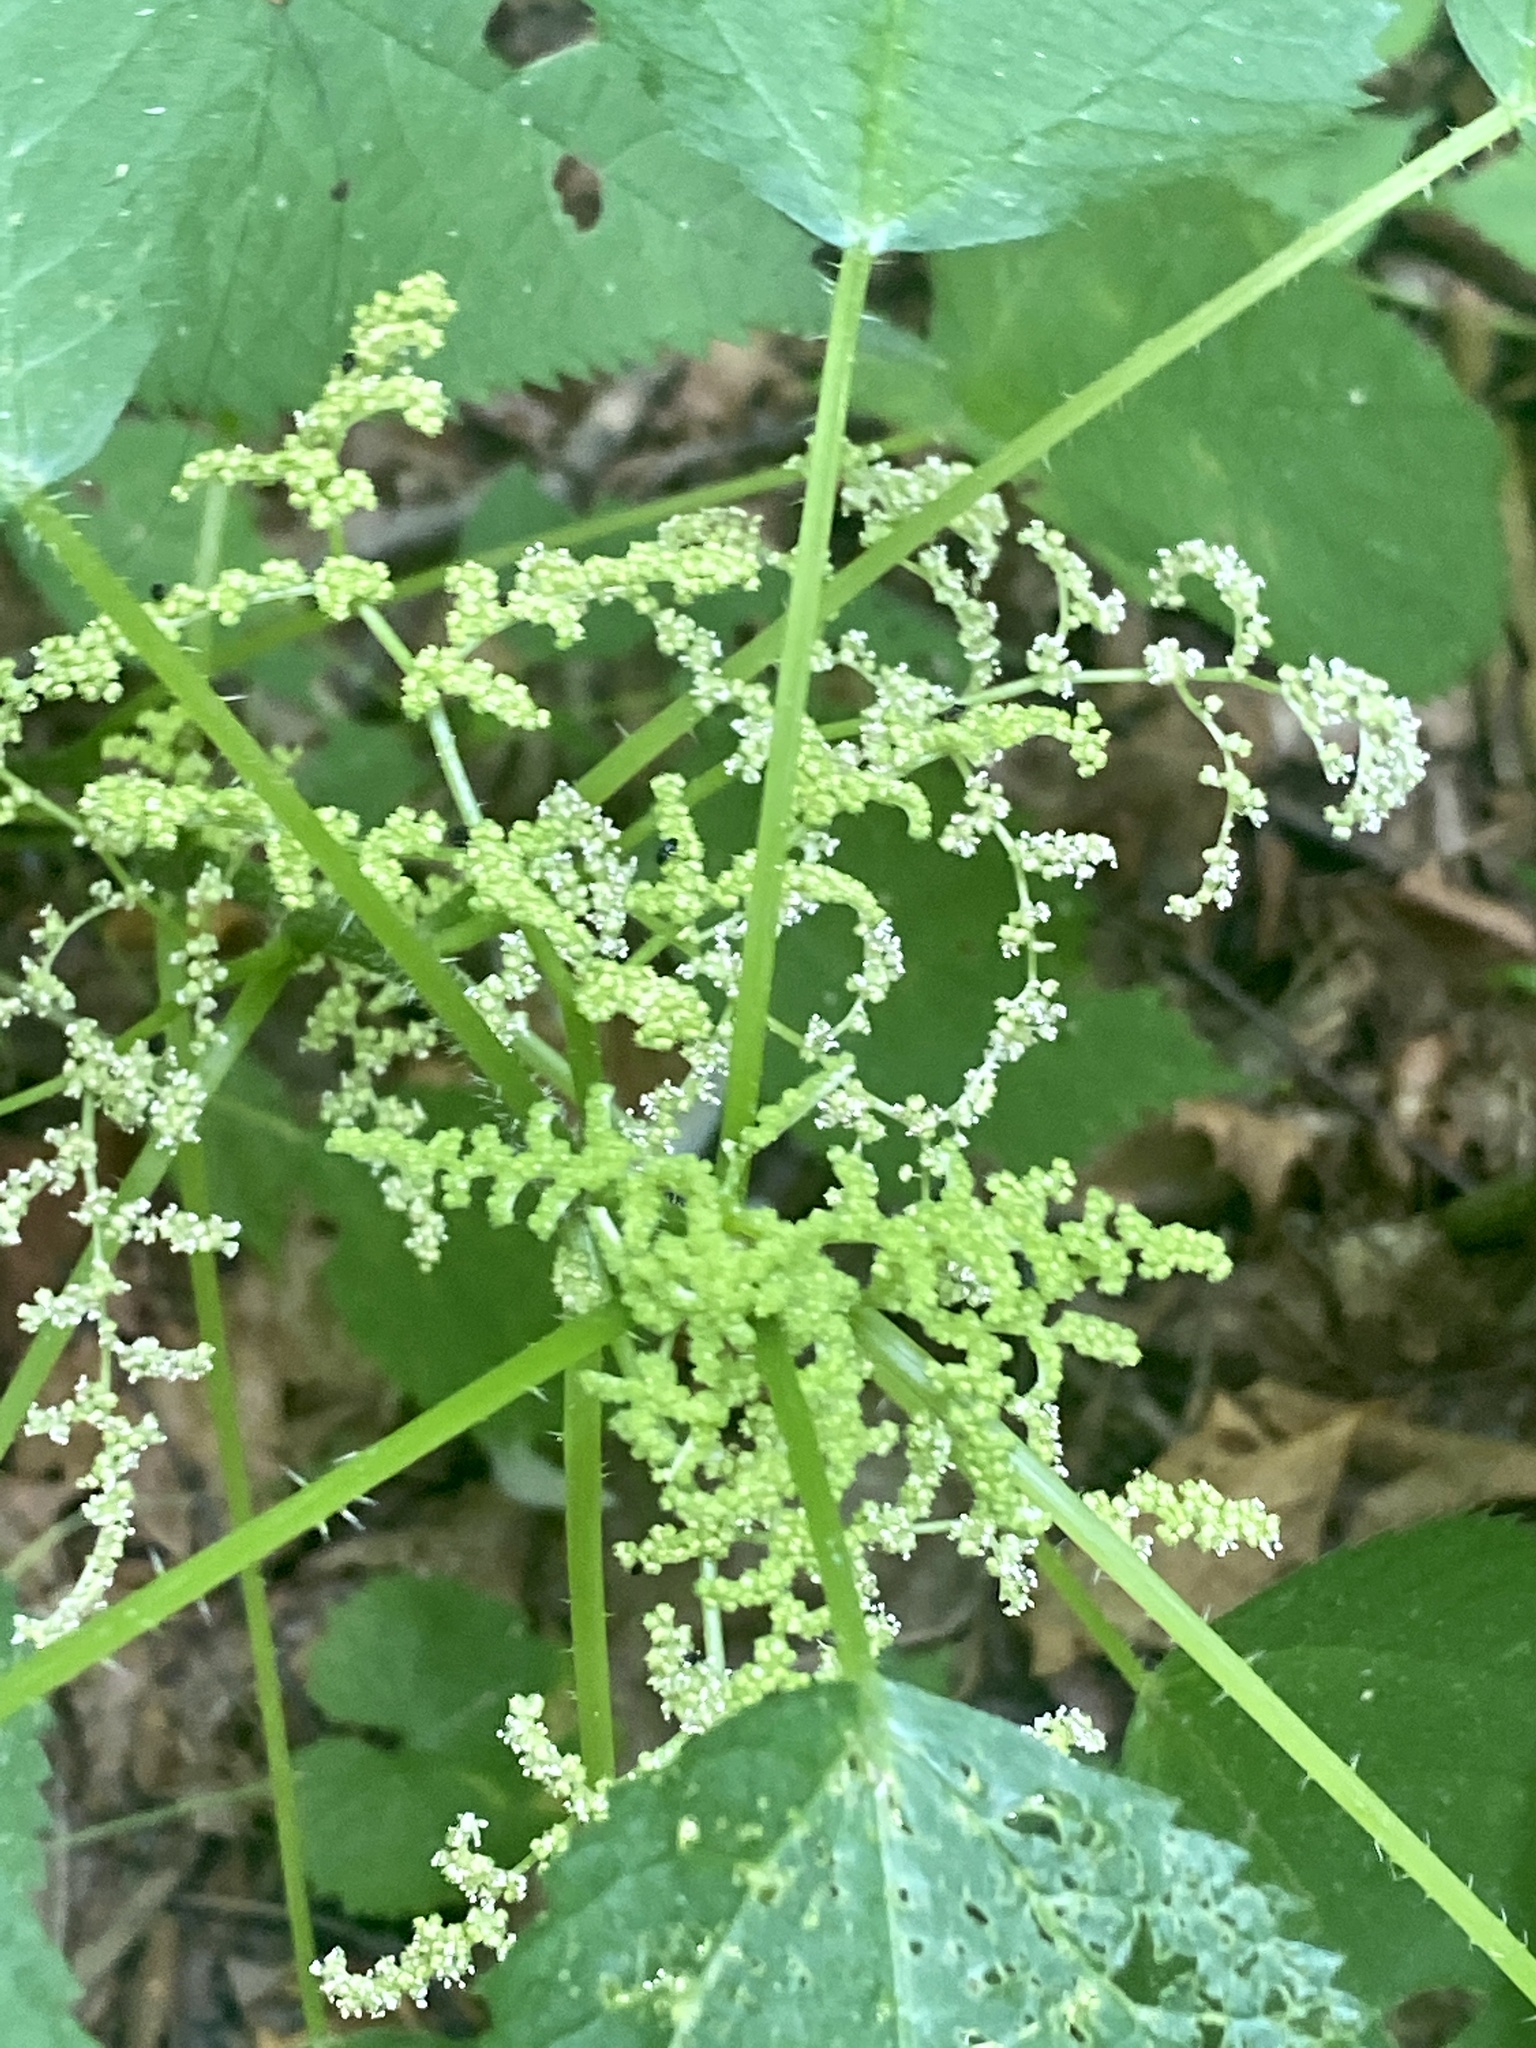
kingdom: Plantae
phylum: Tracheophyta
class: Magnoliopsida
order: Rosales
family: Urticaceae
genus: Laportea
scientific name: Laportea canadensis
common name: Canada nettle
